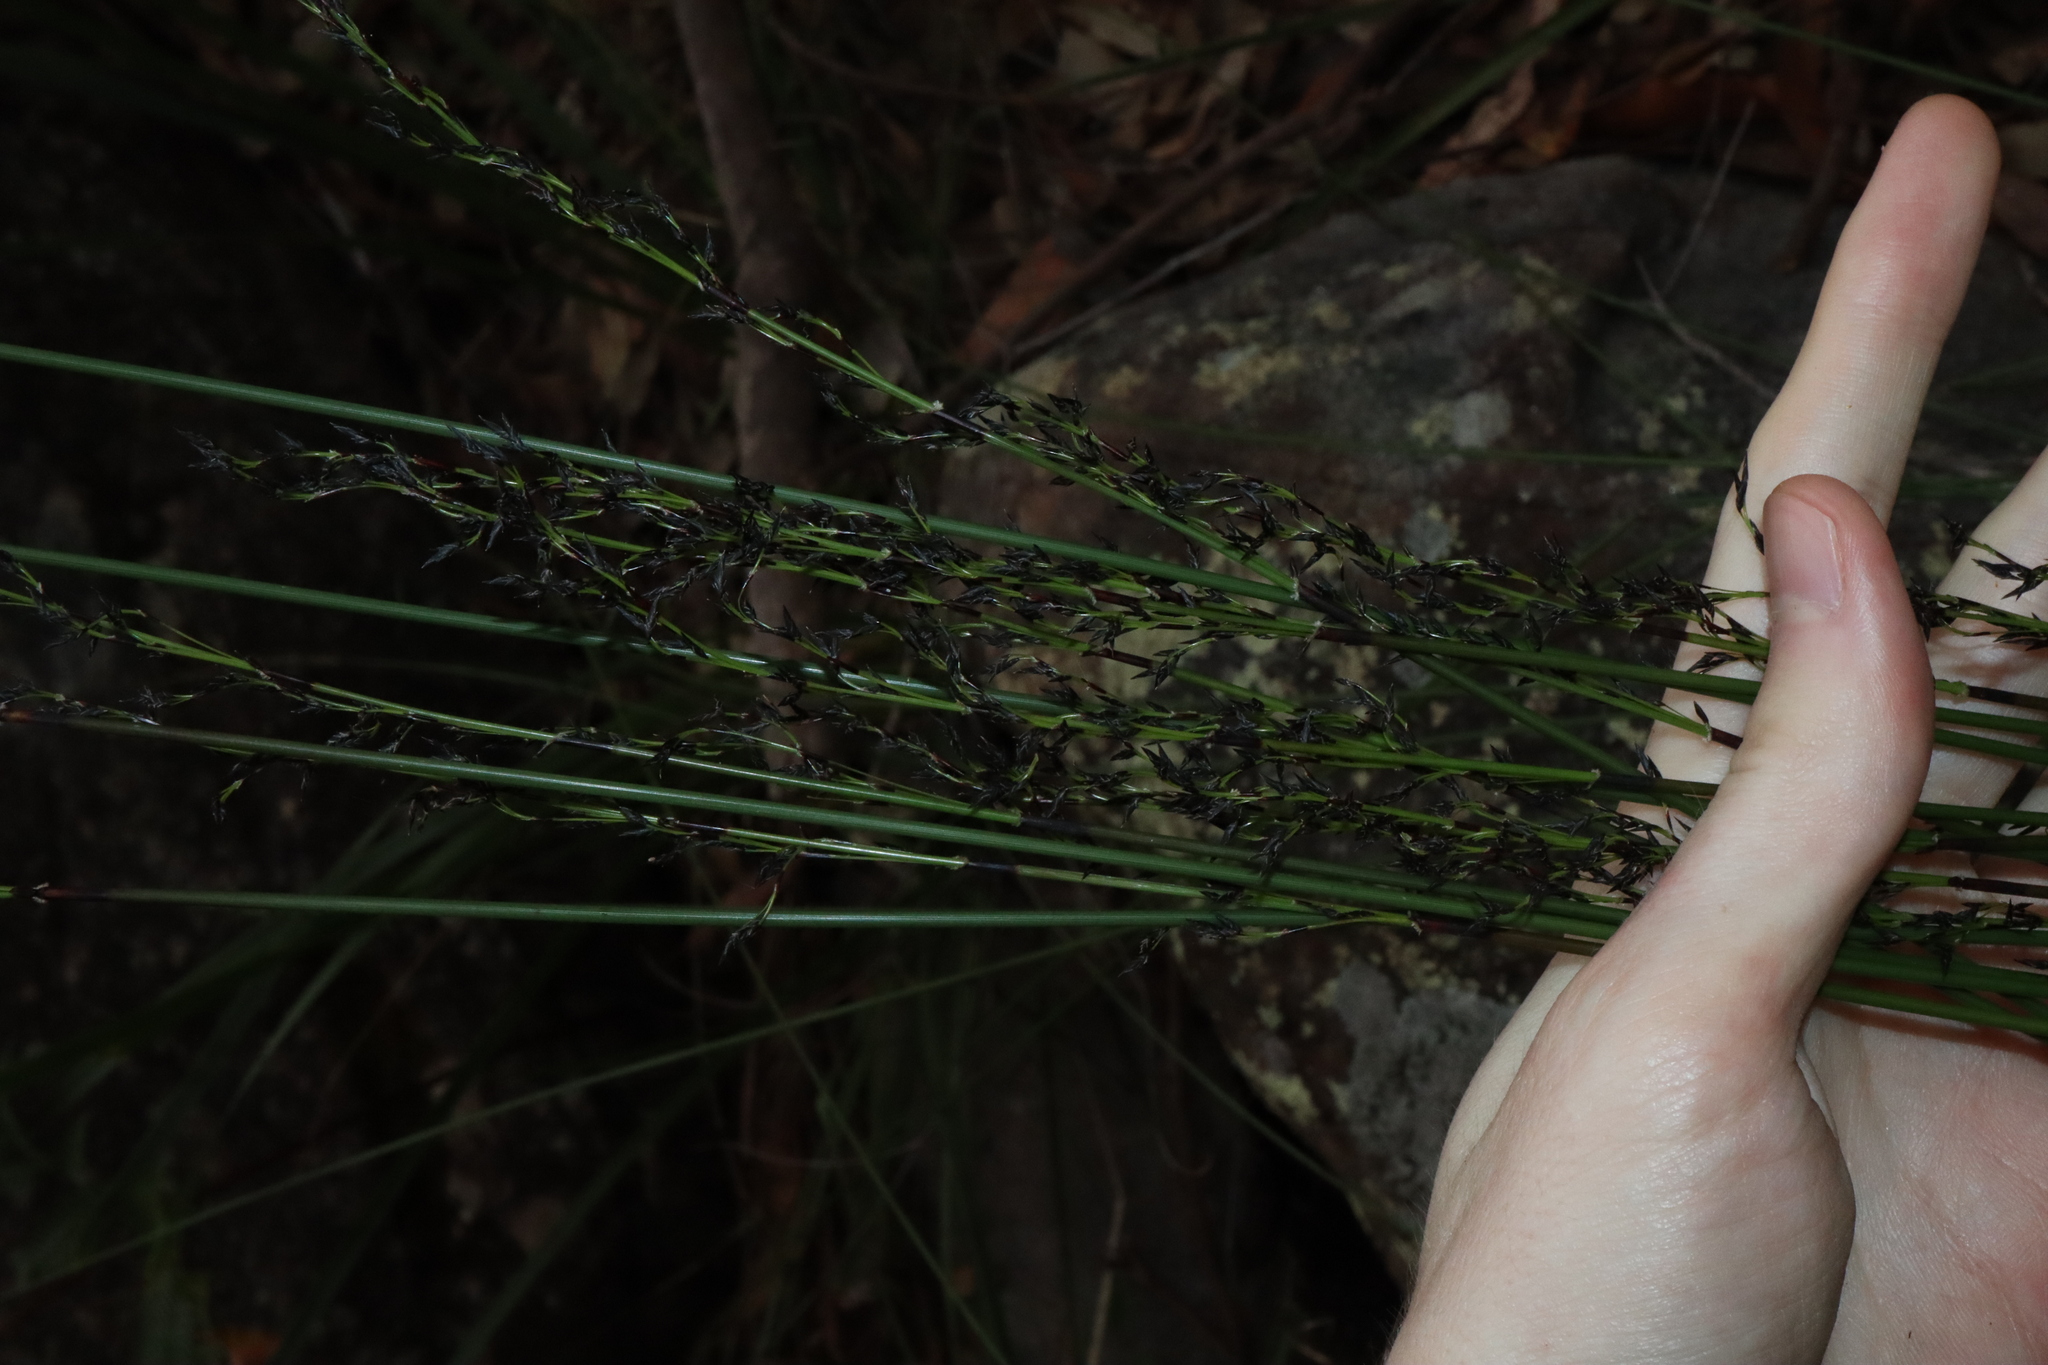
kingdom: Plantae
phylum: Tracheophyta
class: Liliopsida
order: Poales
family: Cyperaceae
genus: Schoenus
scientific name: Schoenus melanostachys
